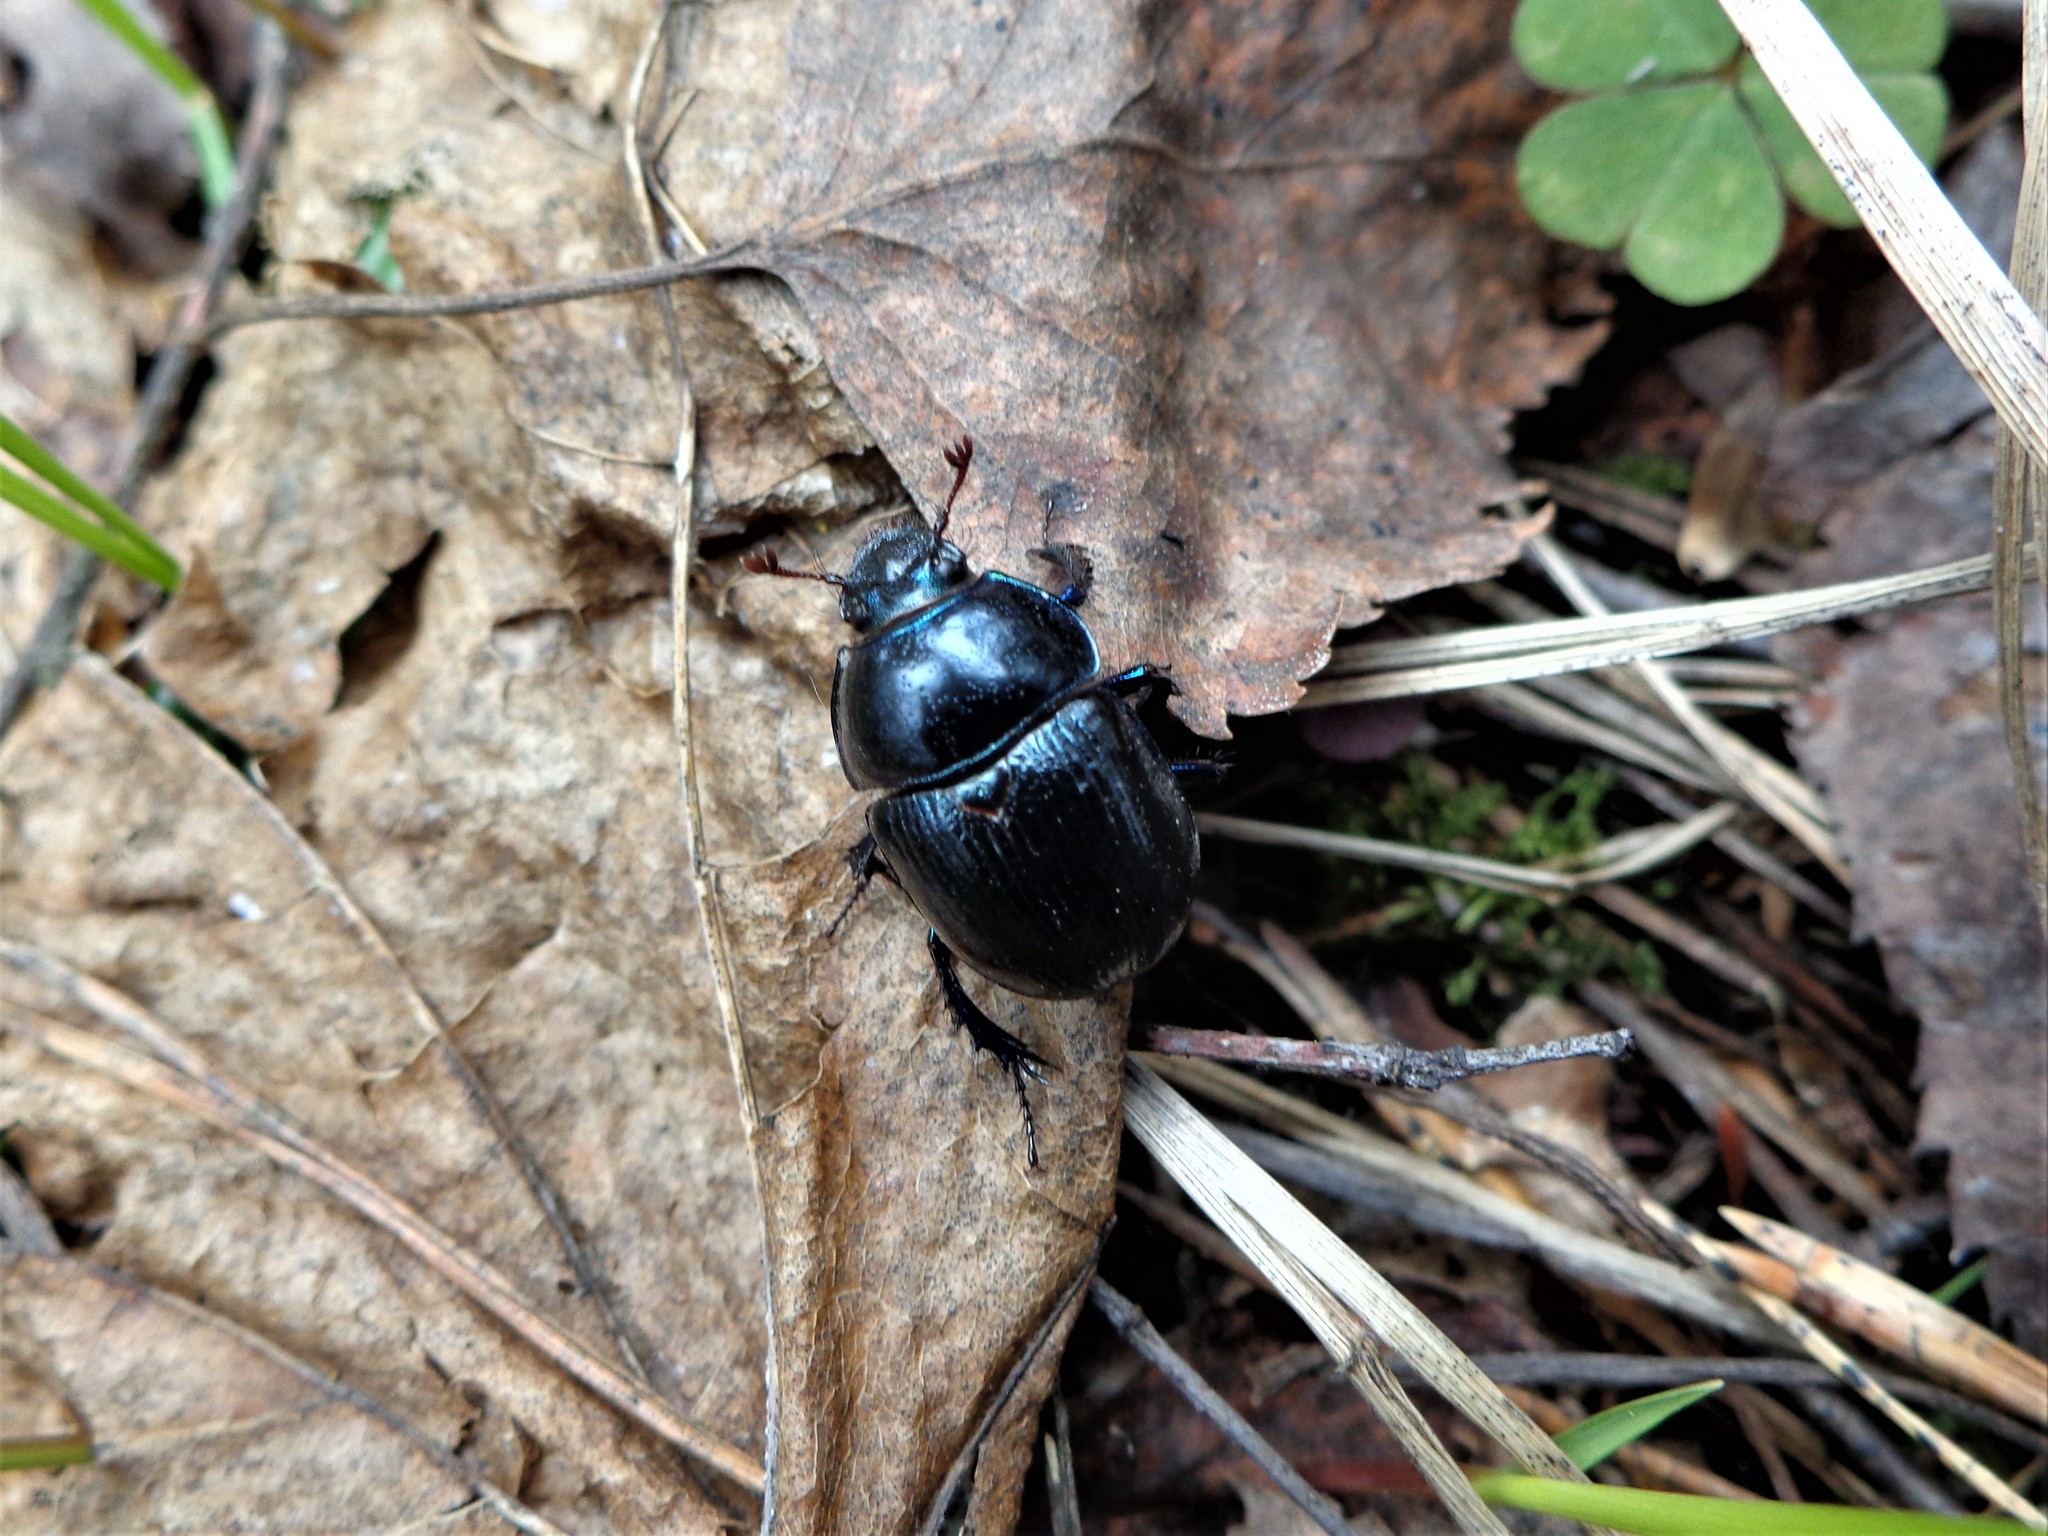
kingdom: Animalia
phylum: Arthropoda
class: Insecta
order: Coleoptera
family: Geotrupidae
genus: Anoplotrupes
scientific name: Anoplotrupes stercorosus
